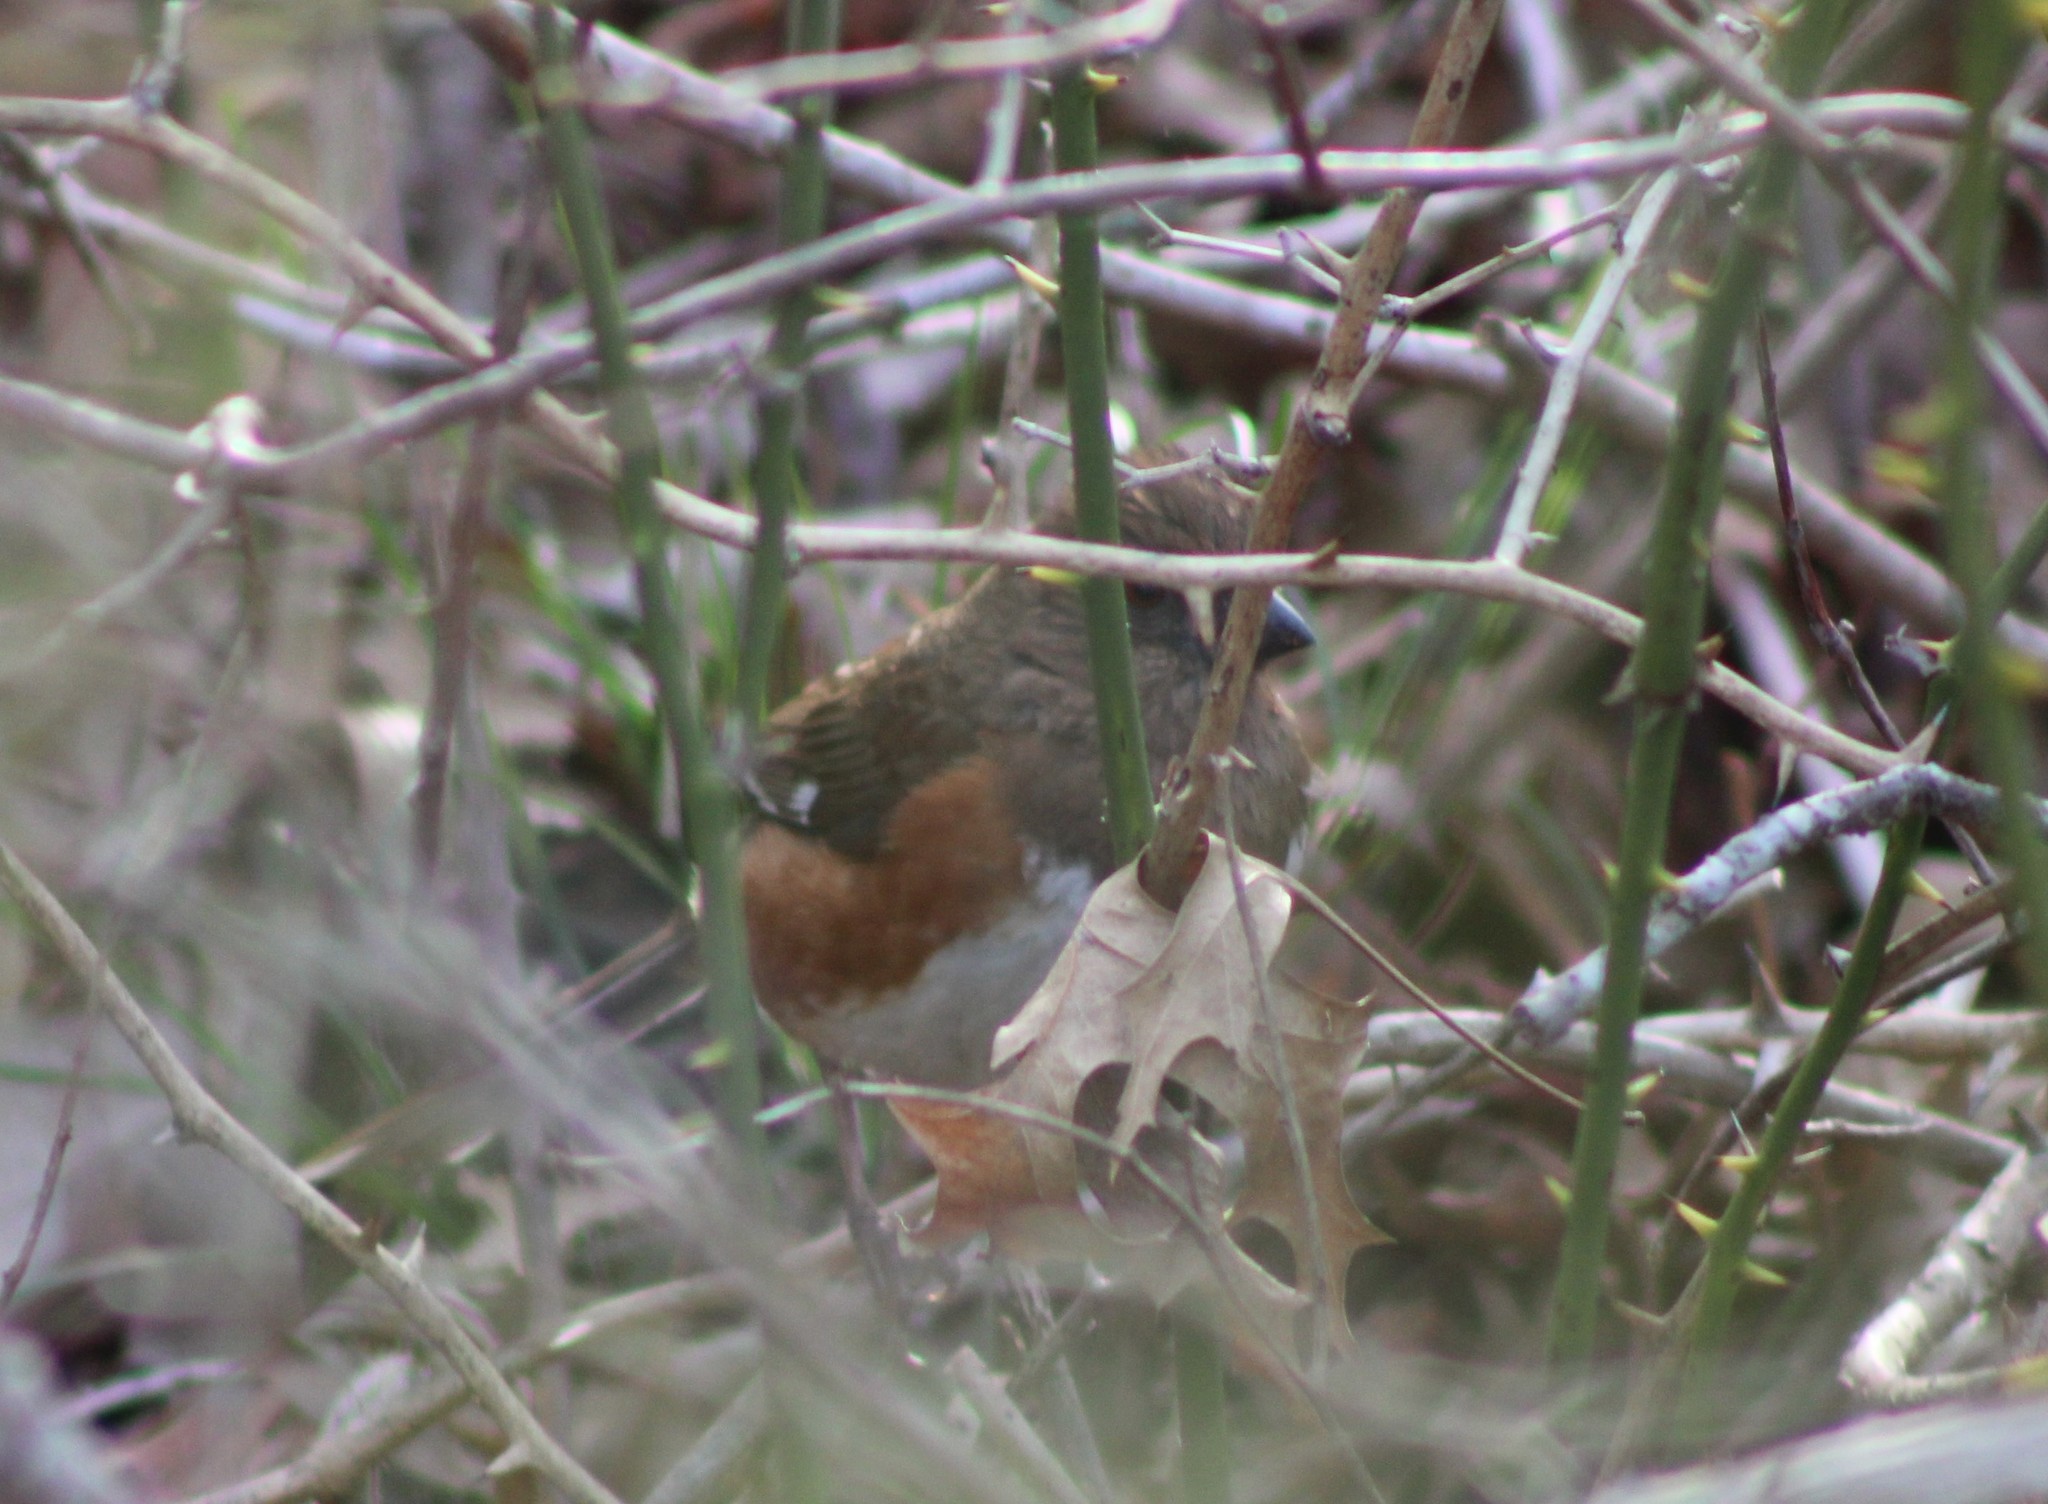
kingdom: Animalia
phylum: Chordata
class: Aves
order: Passeriformes
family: Passerellidae
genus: Pipilo
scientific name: Pipilo erythrophthalmus
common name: Eastern towhee
